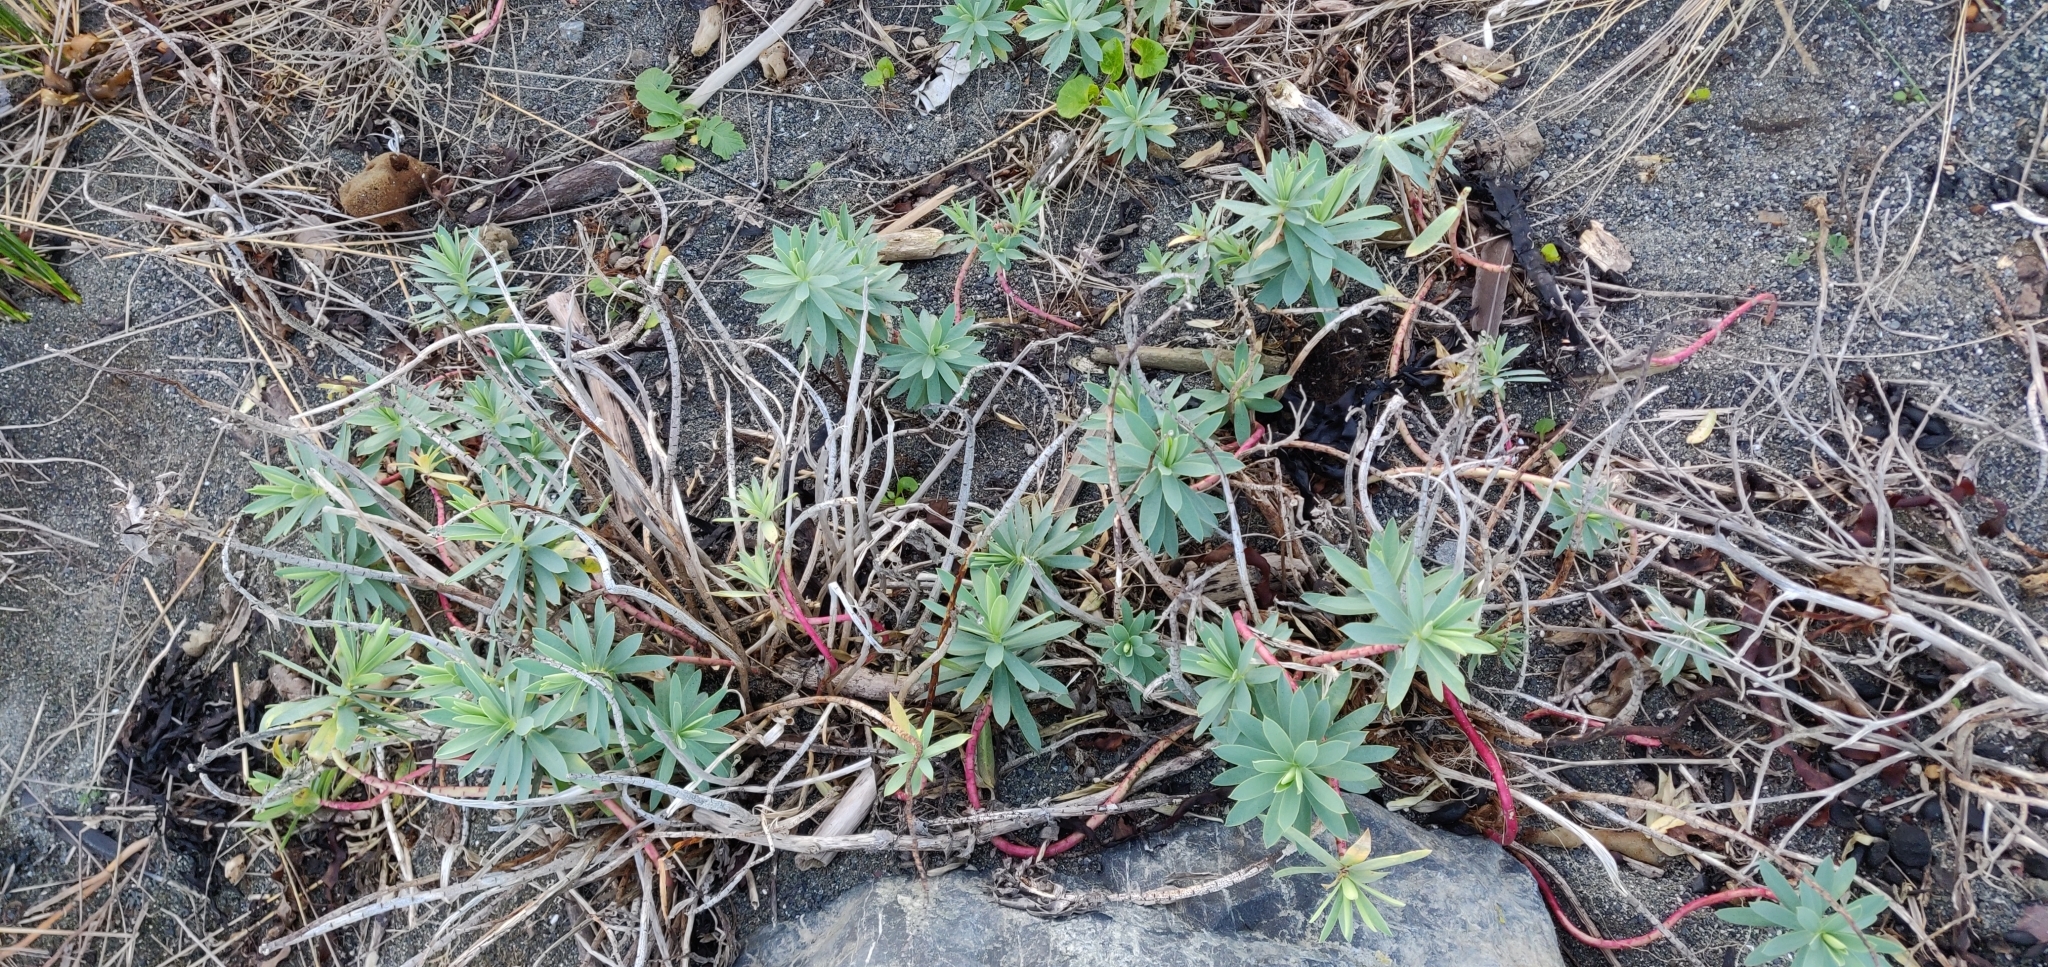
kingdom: Plantae
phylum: Tracheophyta
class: Magnoliopsida
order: Malpighiales
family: Euphorbiaceae
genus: Euphorbia
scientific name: Euphorbia glauca
